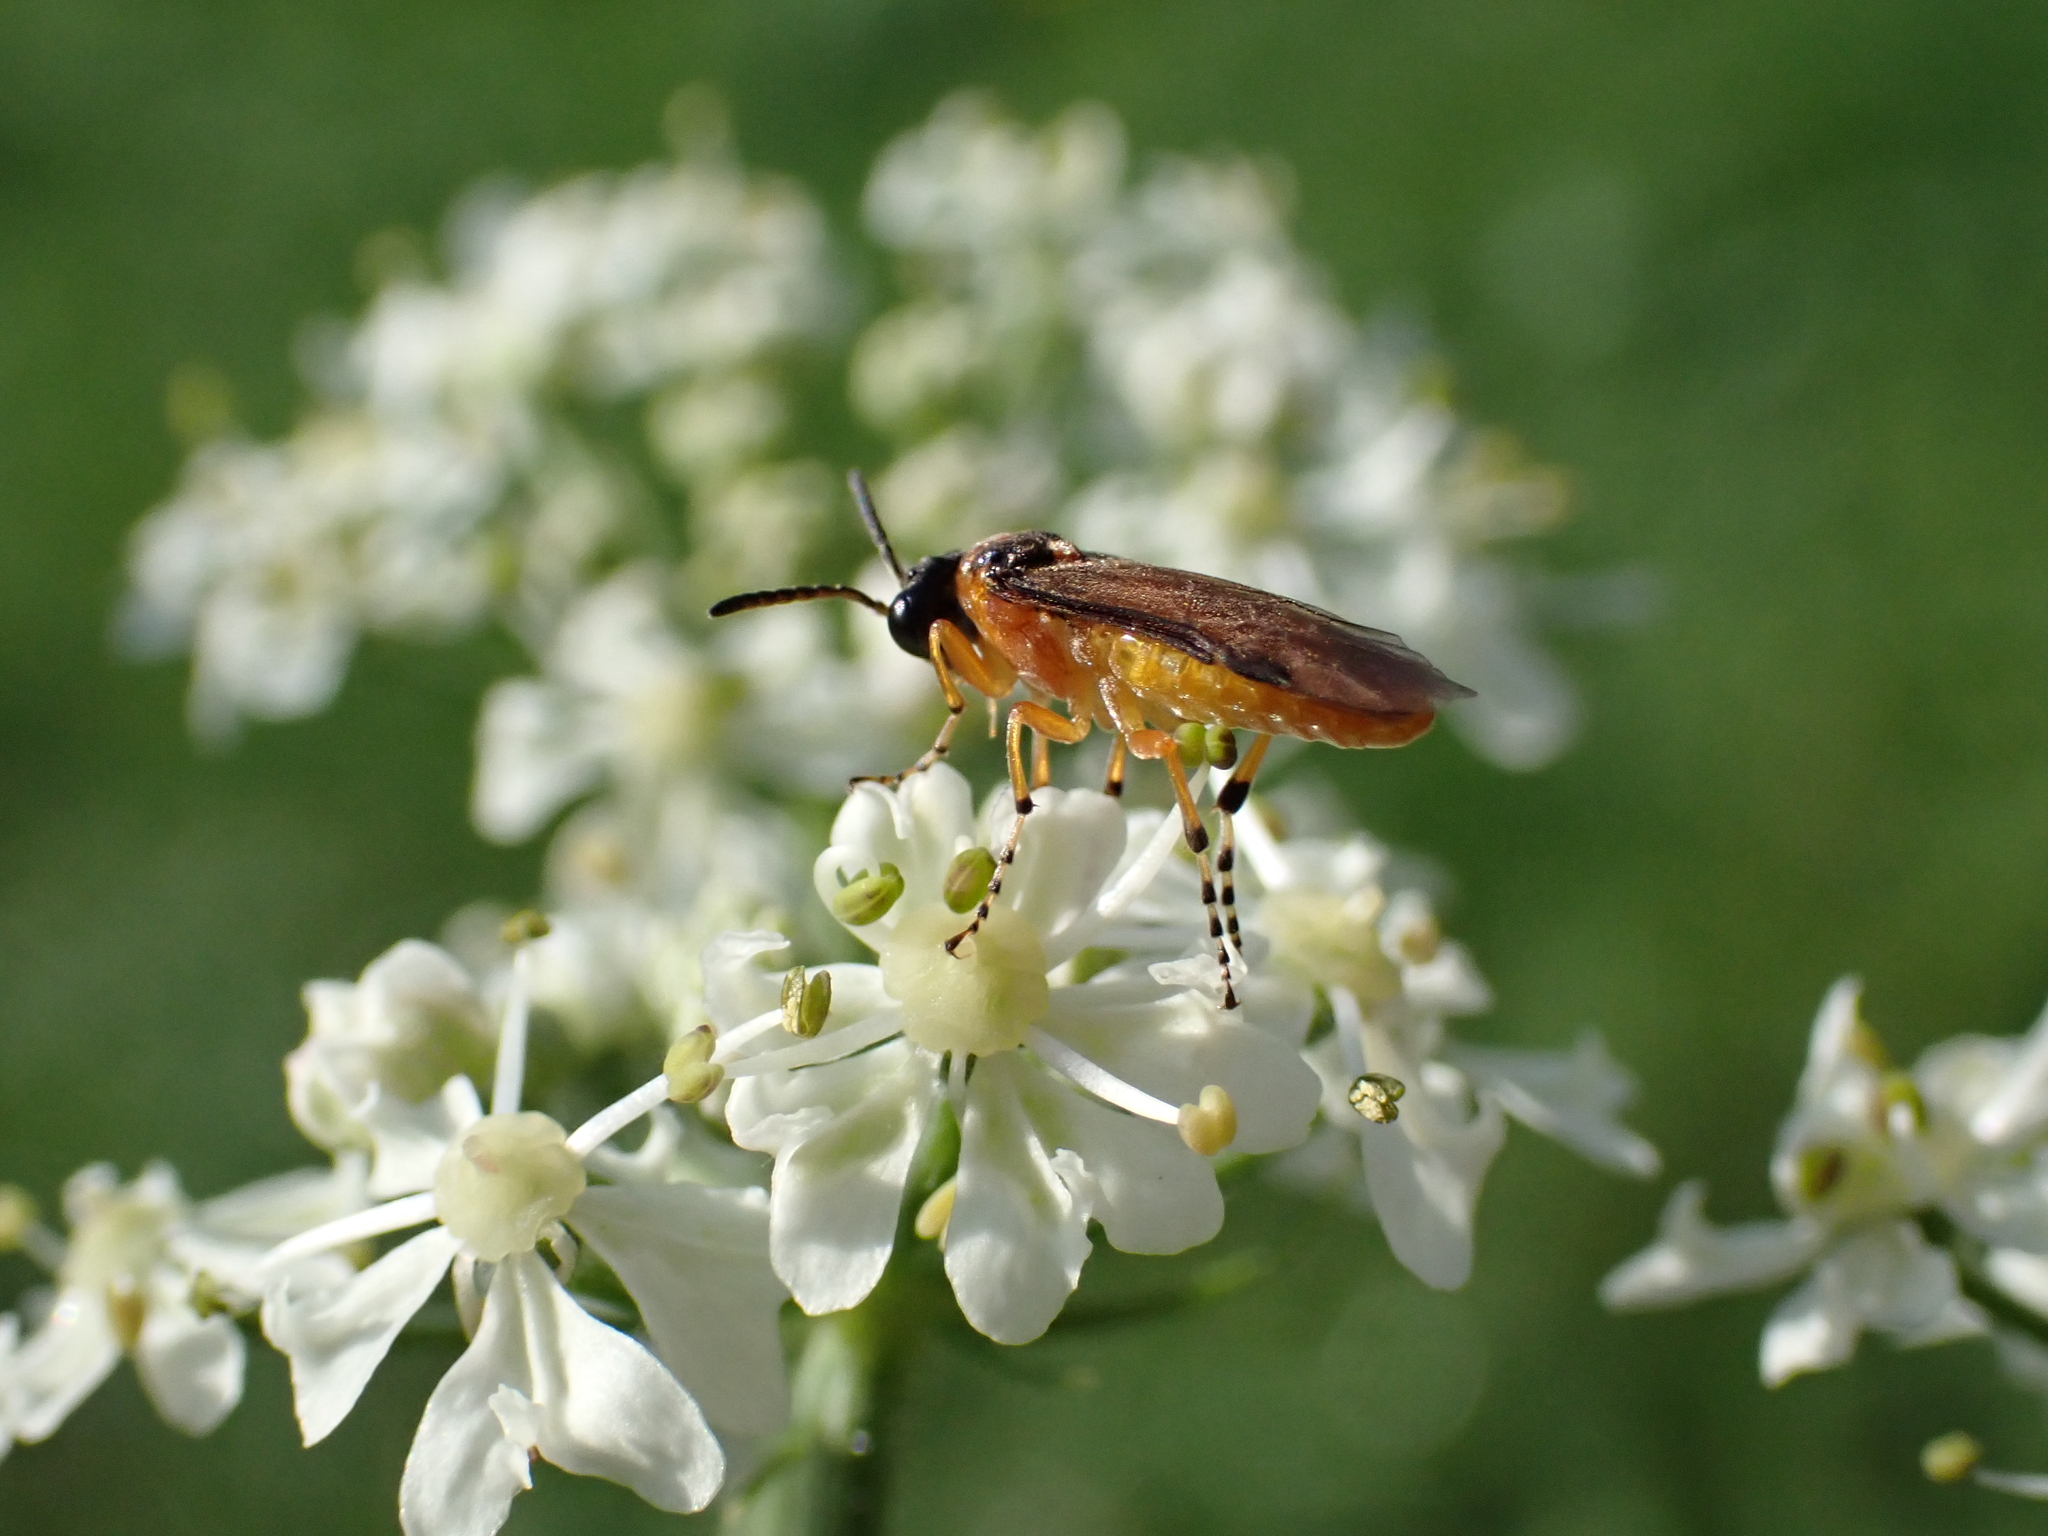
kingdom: Animalia
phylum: Arthropoda
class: Insecta
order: Hymenoptera
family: Tenthredinidae
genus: Athalia
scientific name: Athalia rosae
